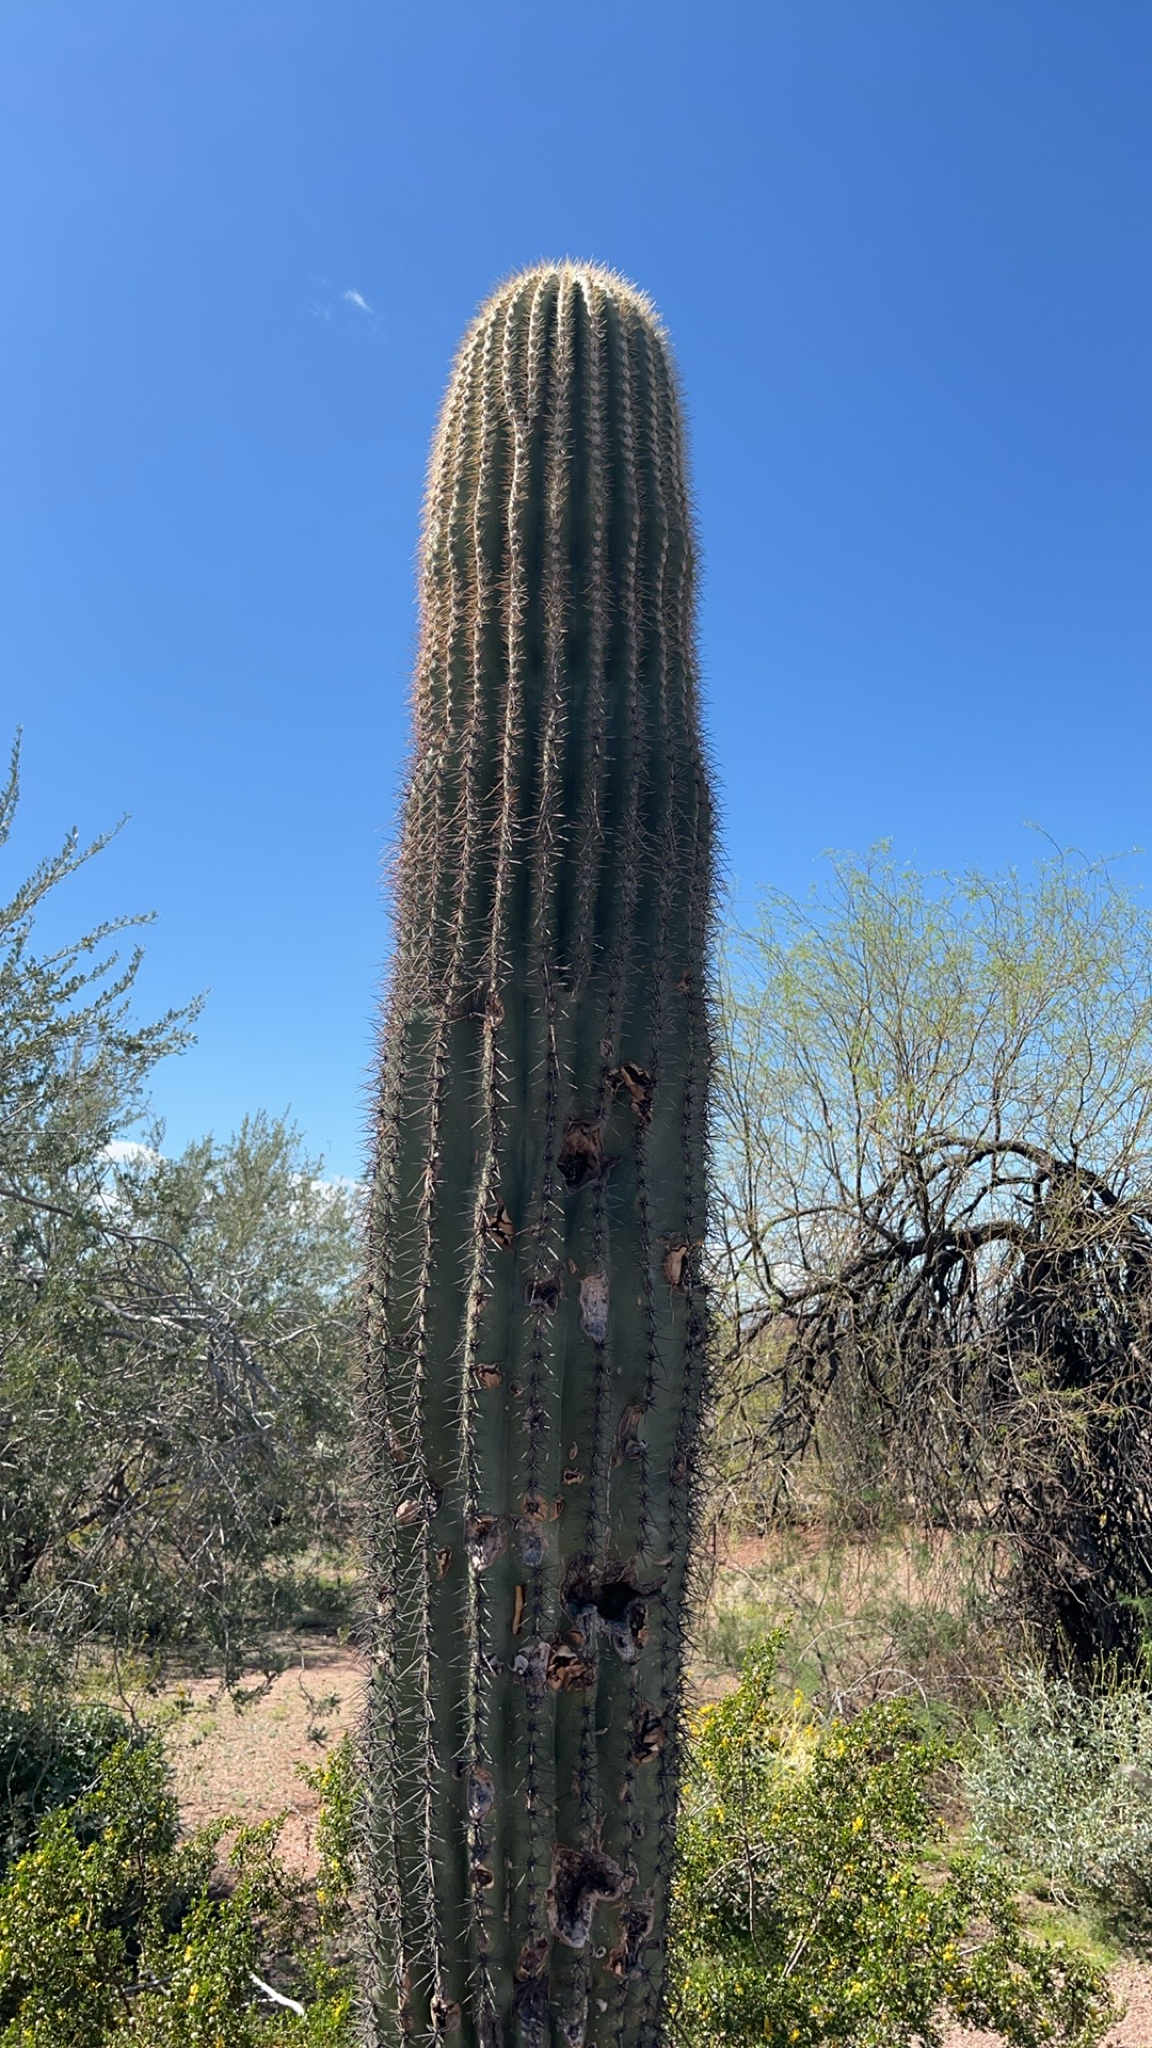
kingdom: Plantae
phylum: Tracheophyta
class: Magnoliopsida
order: Caryophyllales
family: Cactaceae
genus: Carnegiea
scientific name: Carnegiea gigantea
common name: Saguaro
